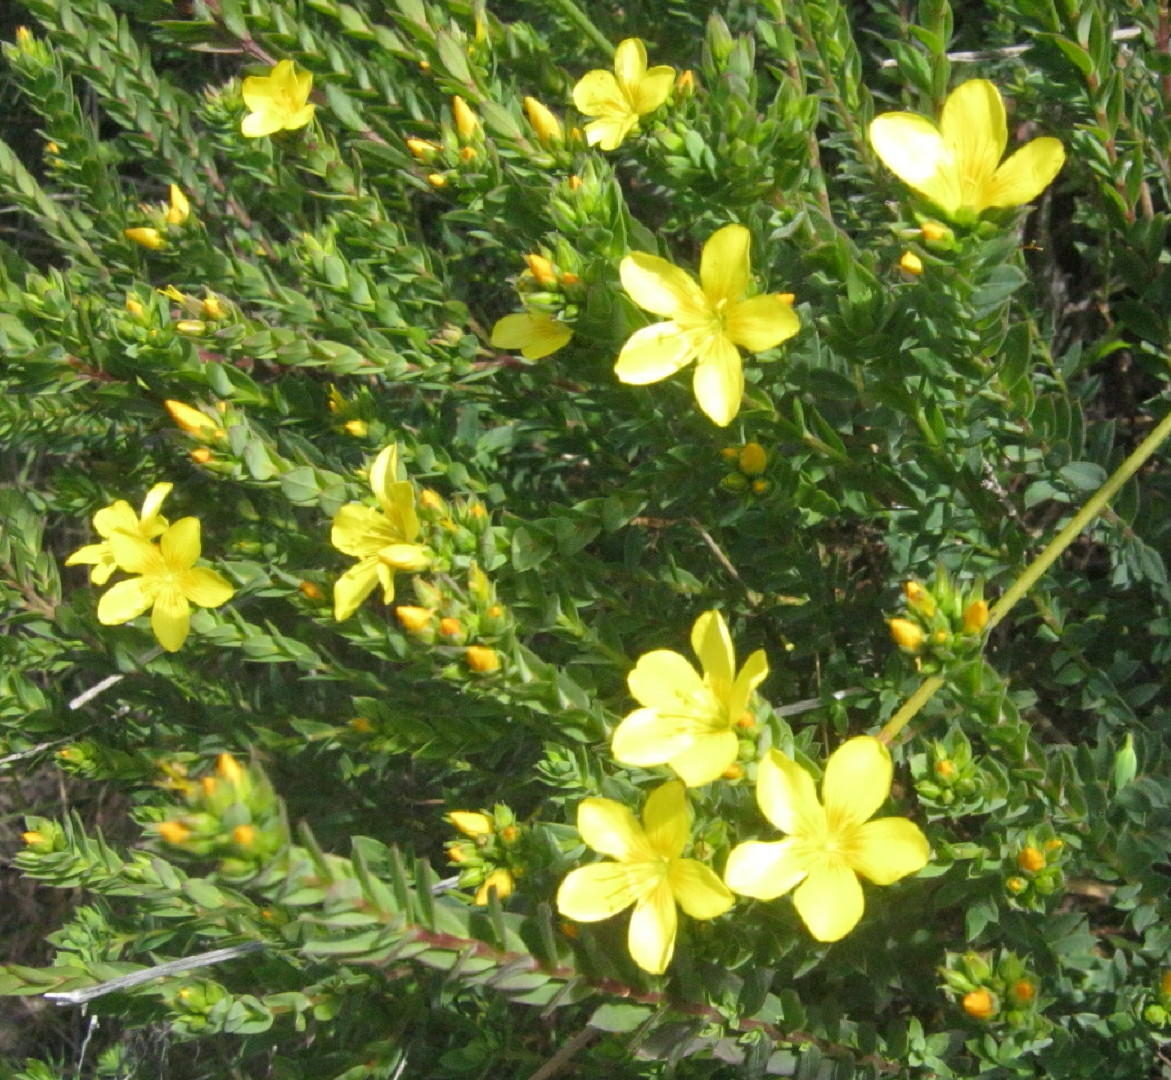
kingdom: Plantae
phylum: Tracheophyta
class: Magnoliopsida
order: Malpighiales
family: Linaceae
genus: Linum
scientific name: Linum aethiopicum
